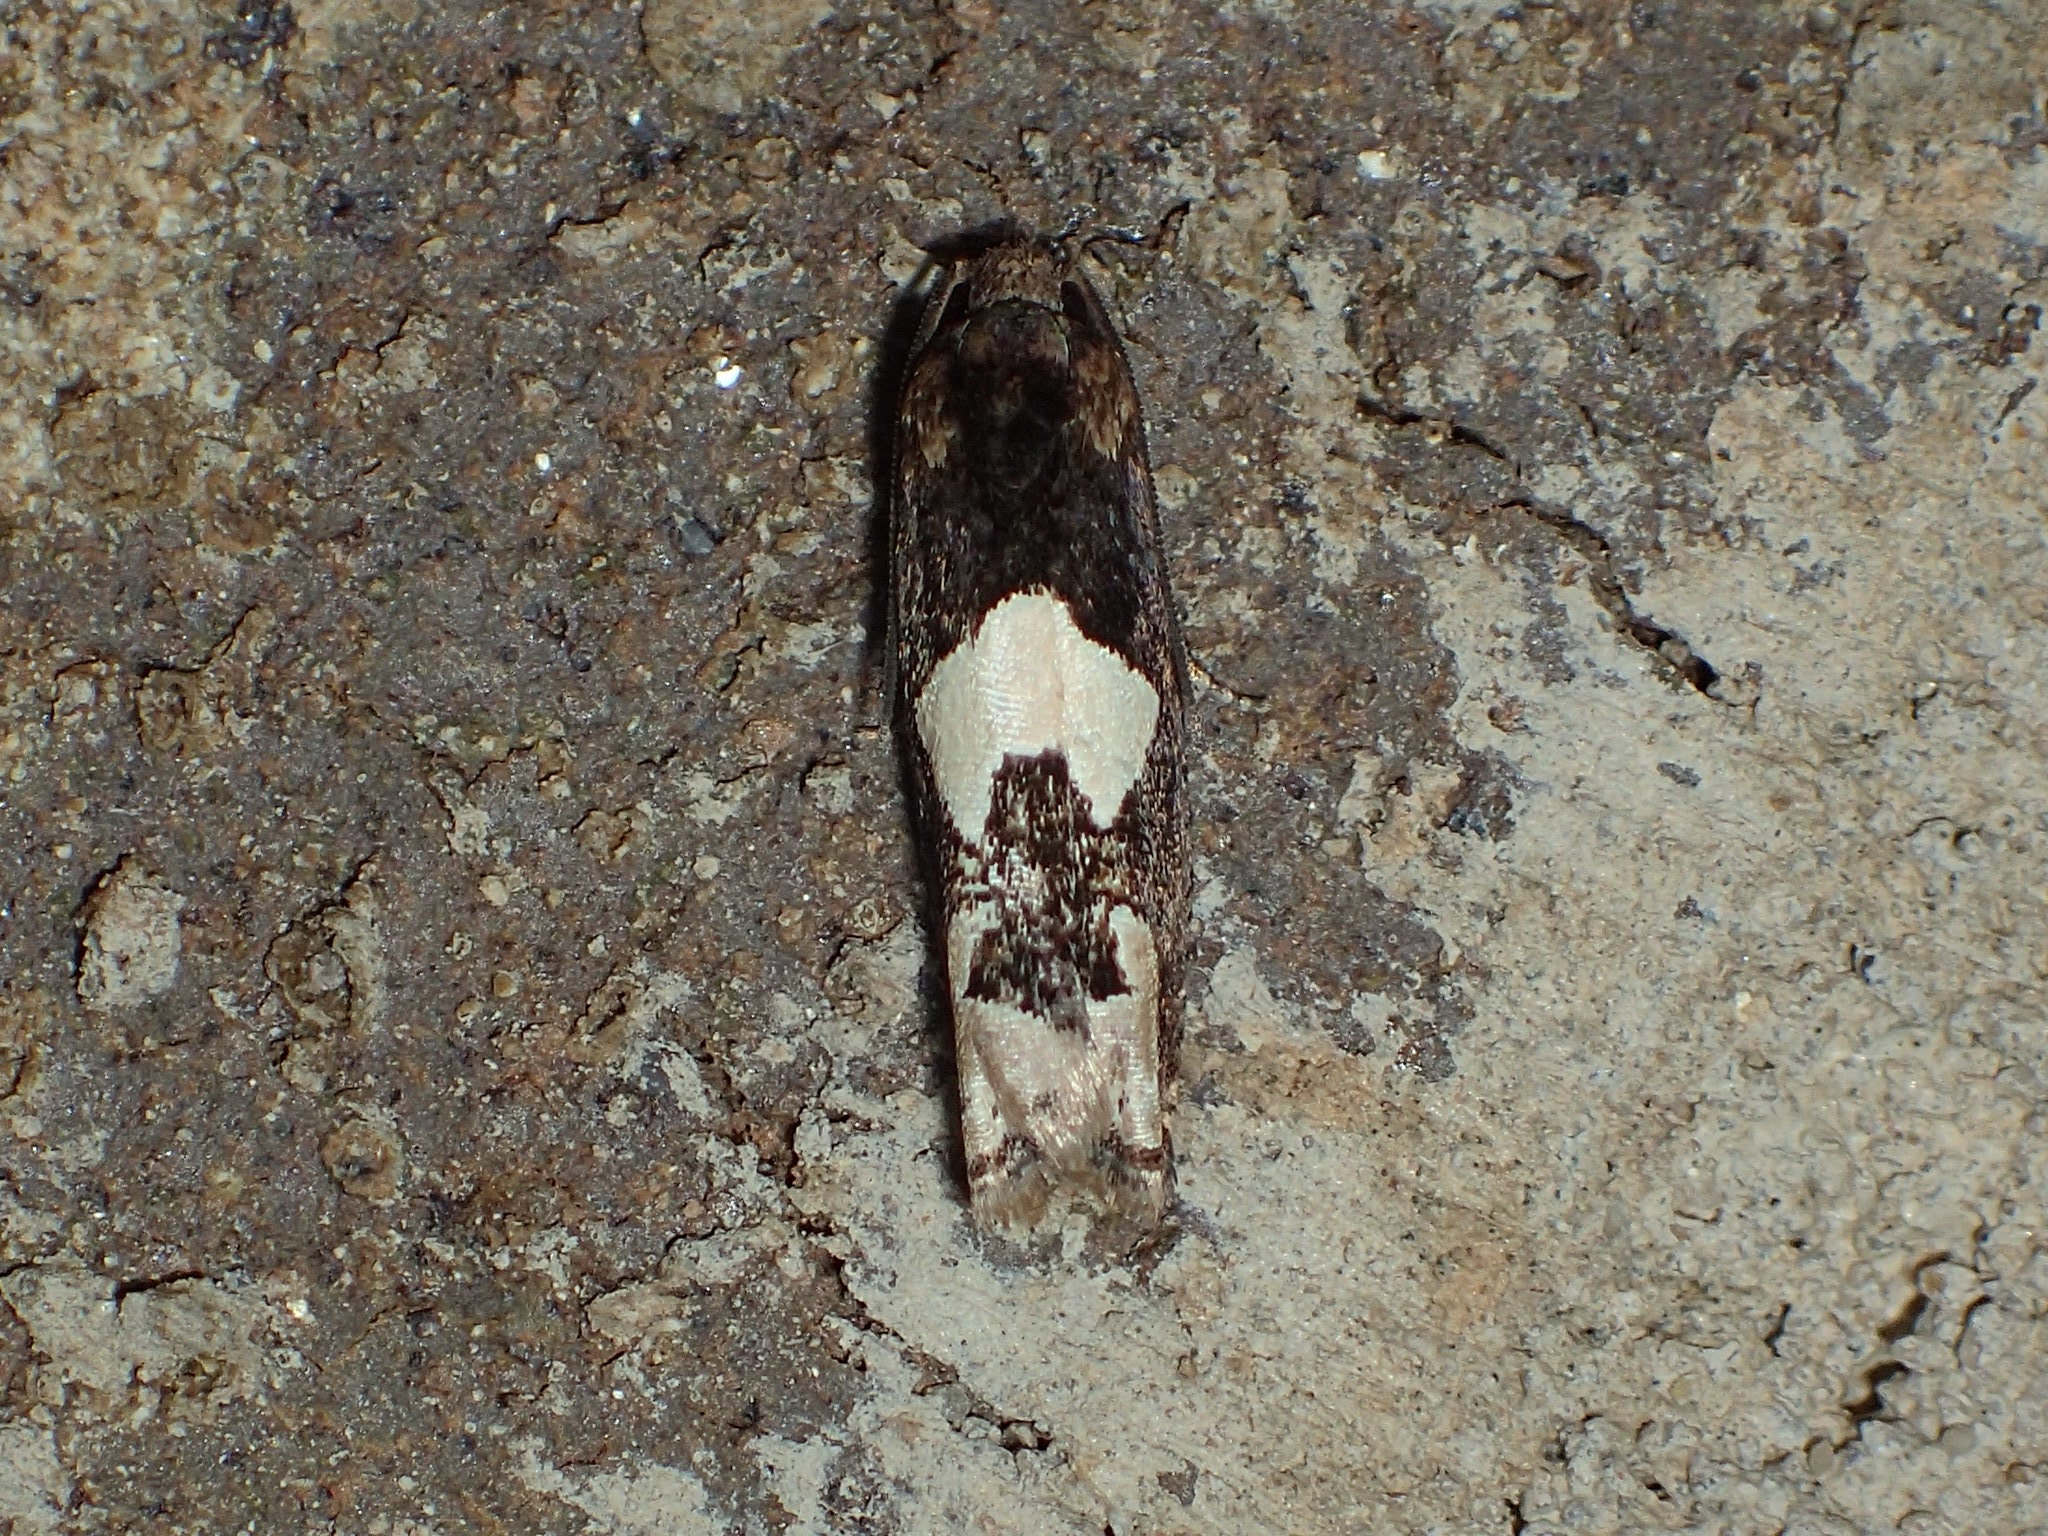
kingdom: Animalia
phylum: Arthropoda
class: Insecta
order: Lepidoptera
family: Tortricidae
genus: Epiblema
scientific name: Epiblema otiosana
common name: Bidens borer moth
